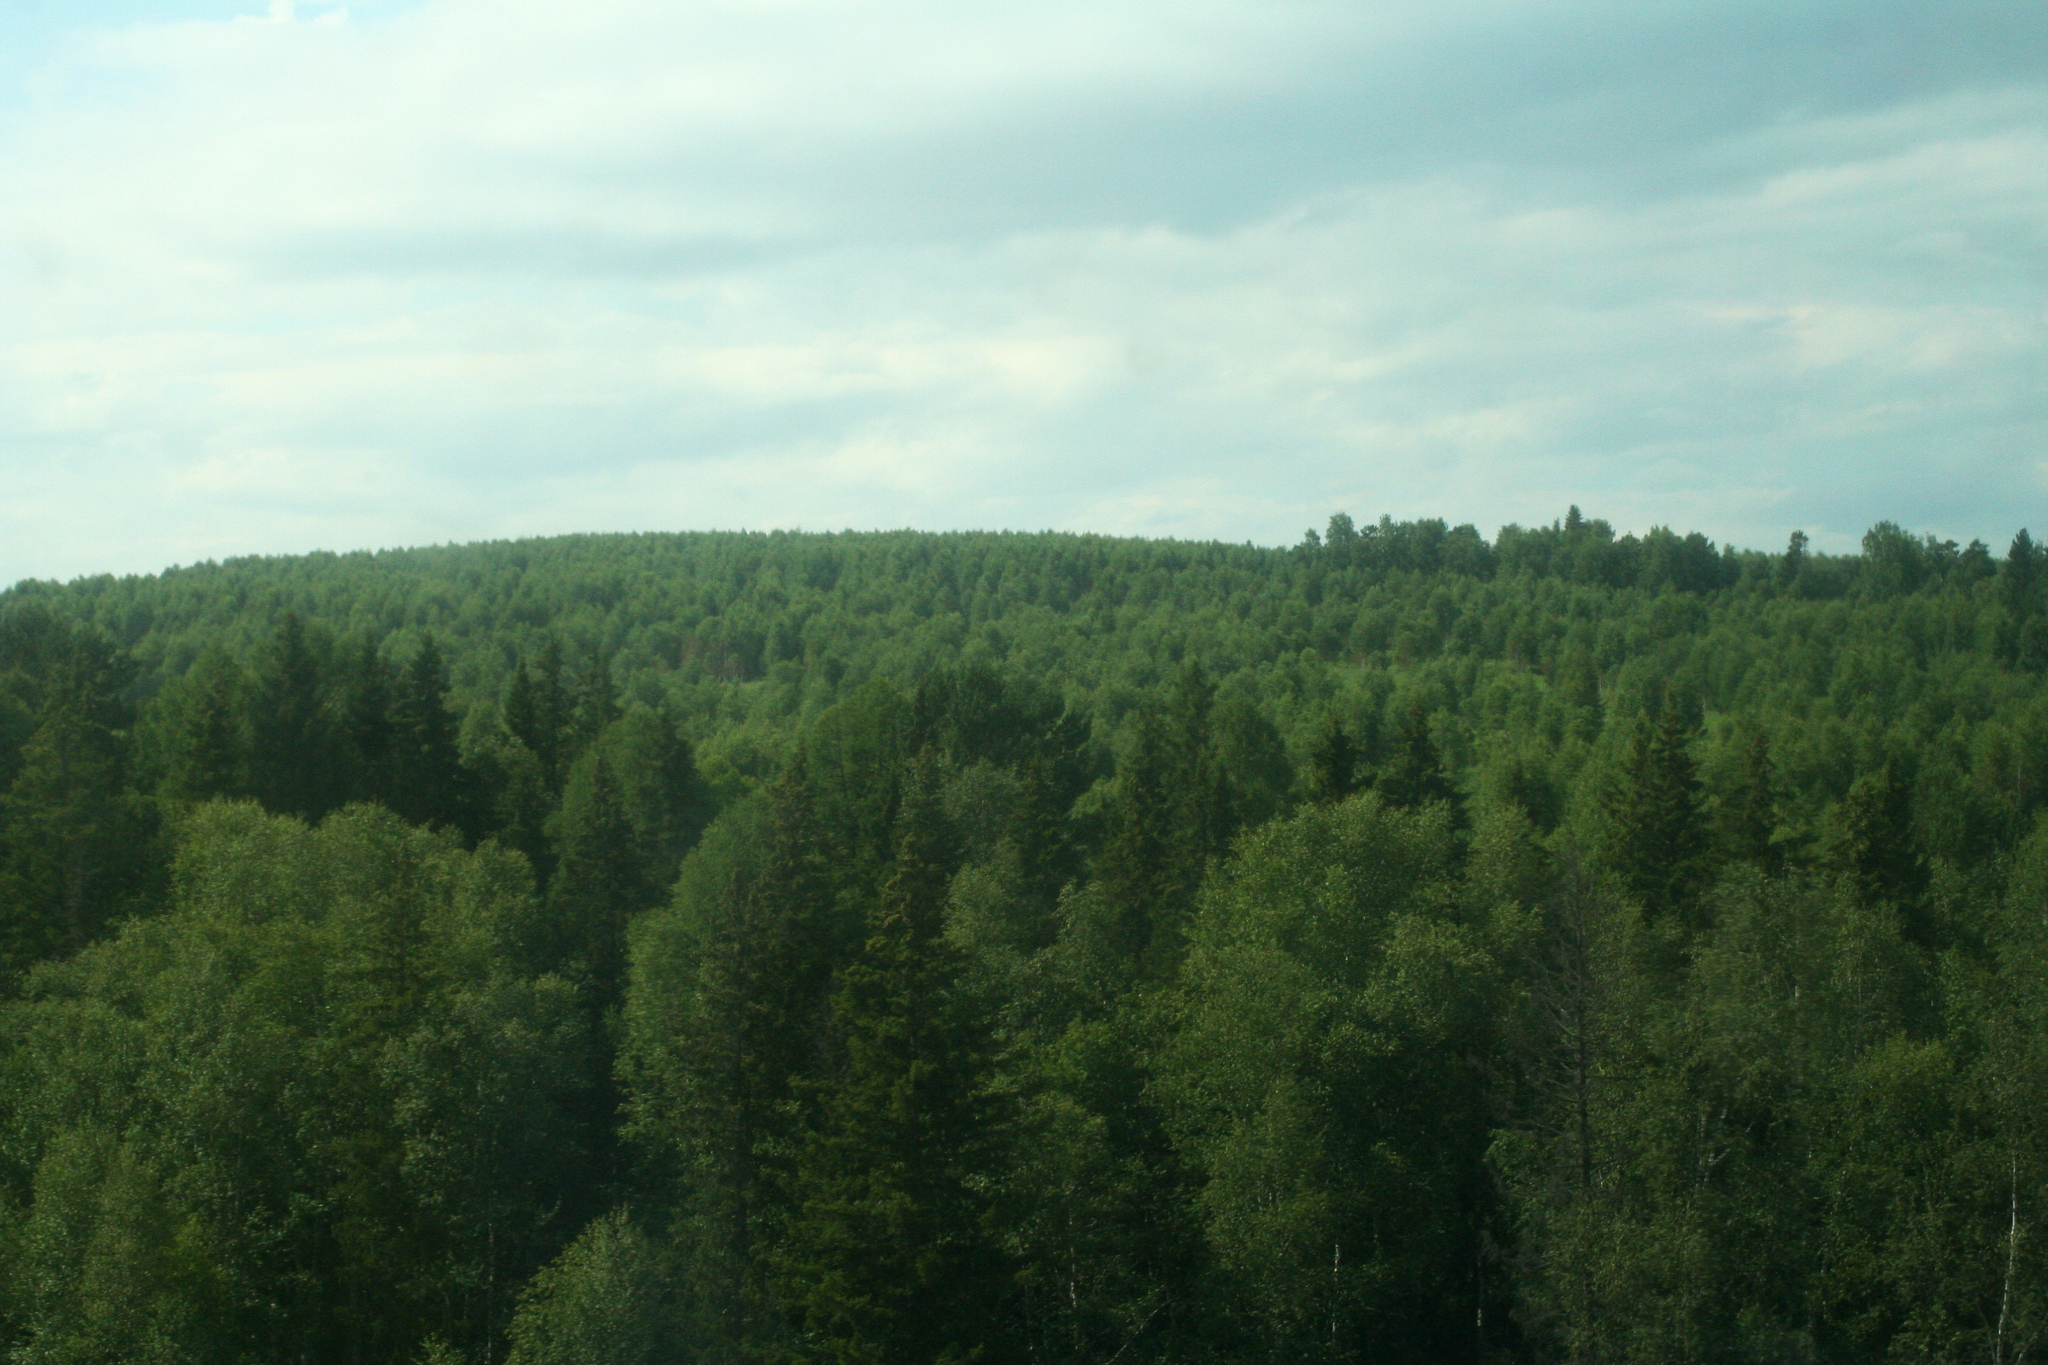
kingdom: Plantae
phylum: Tracheophyta
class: Pinopsida
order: Pinales
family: Pinaceae
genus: Picea
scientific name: Picea obovata
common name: Siberian spruce
